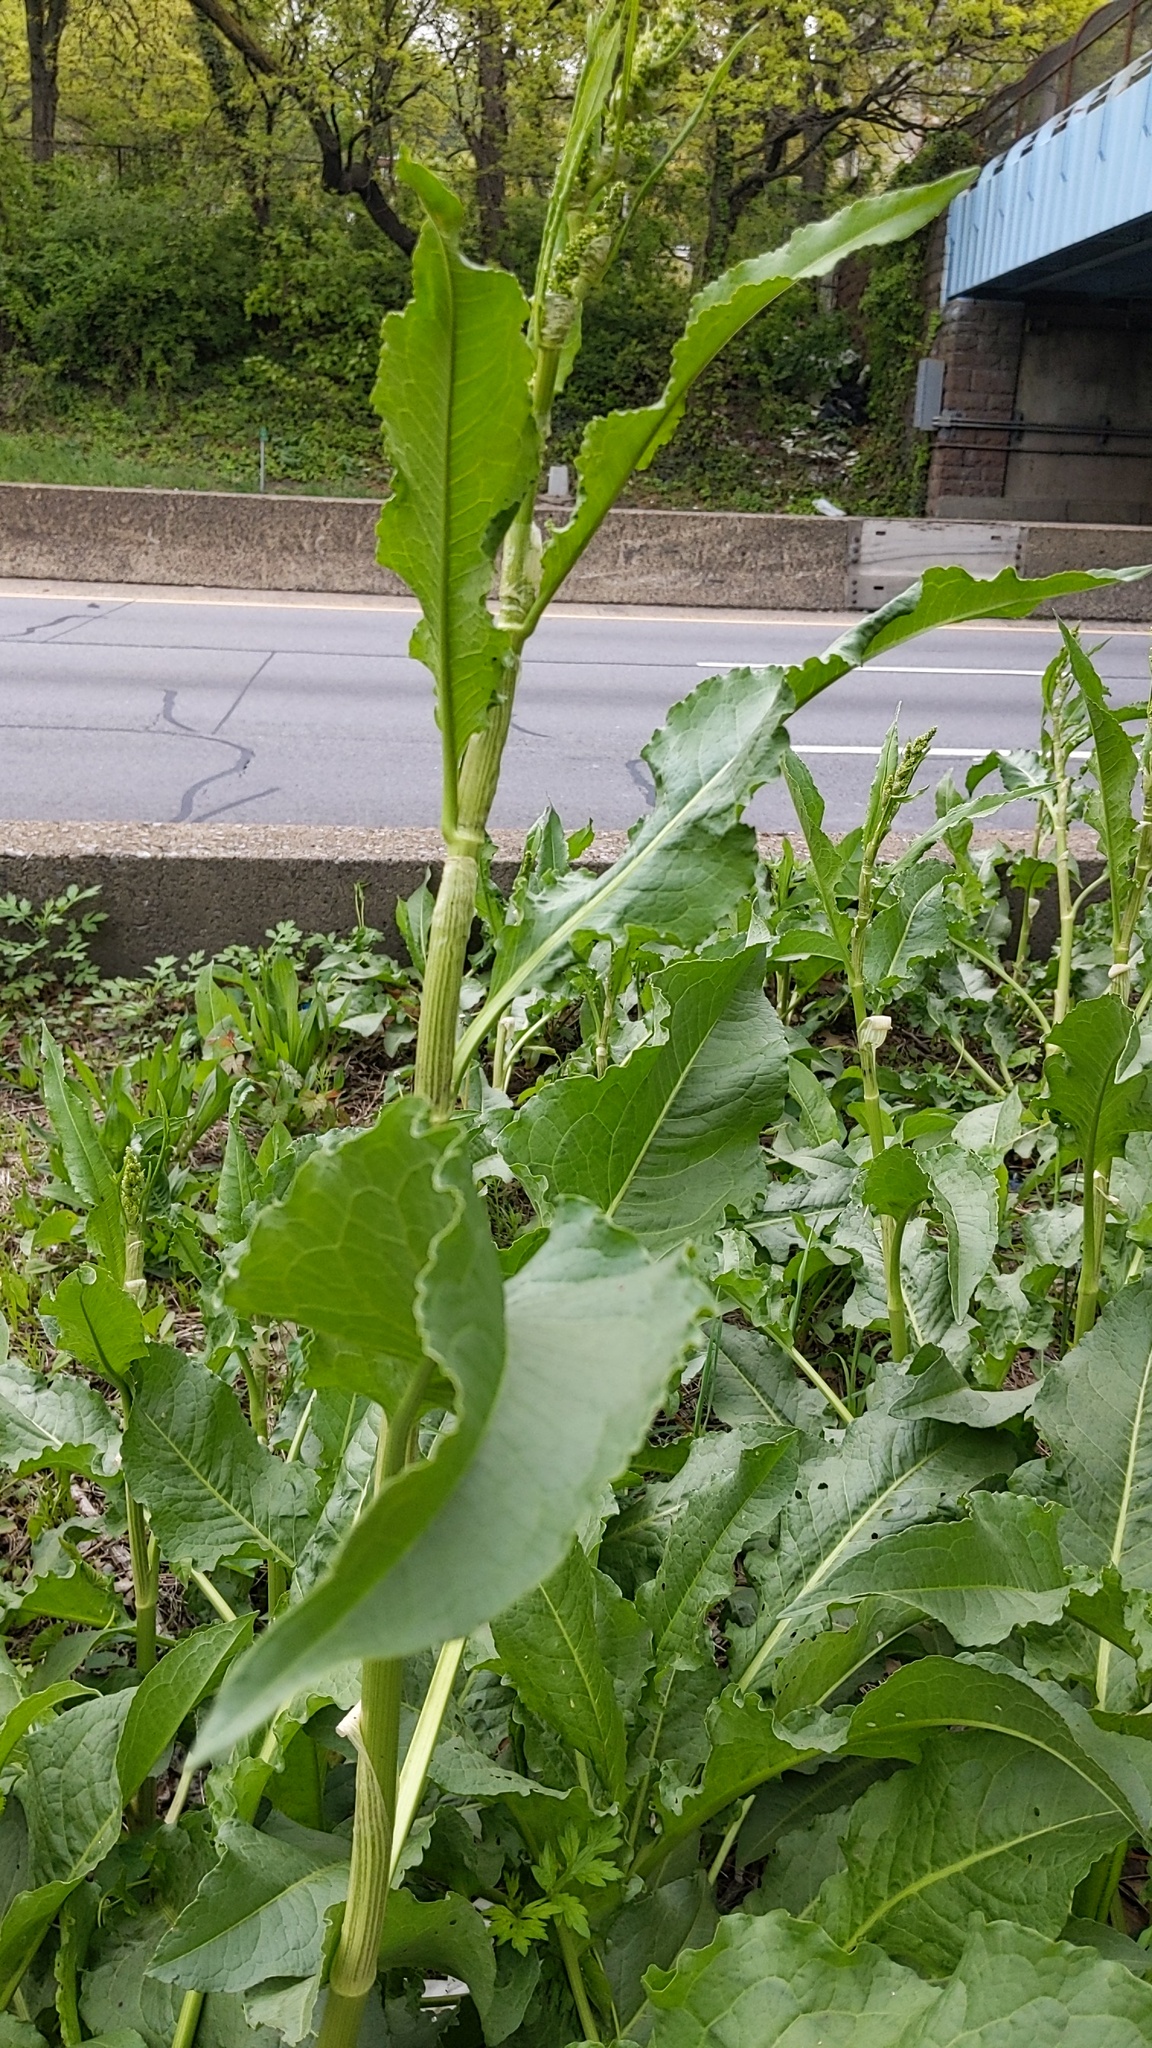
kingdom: Plantae
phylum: Tracheophyta
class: Magnoliopsida
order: Caryophyllales
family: Polygonaceae
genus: Rumex
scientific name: Rumex crispus
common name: Curled dock
